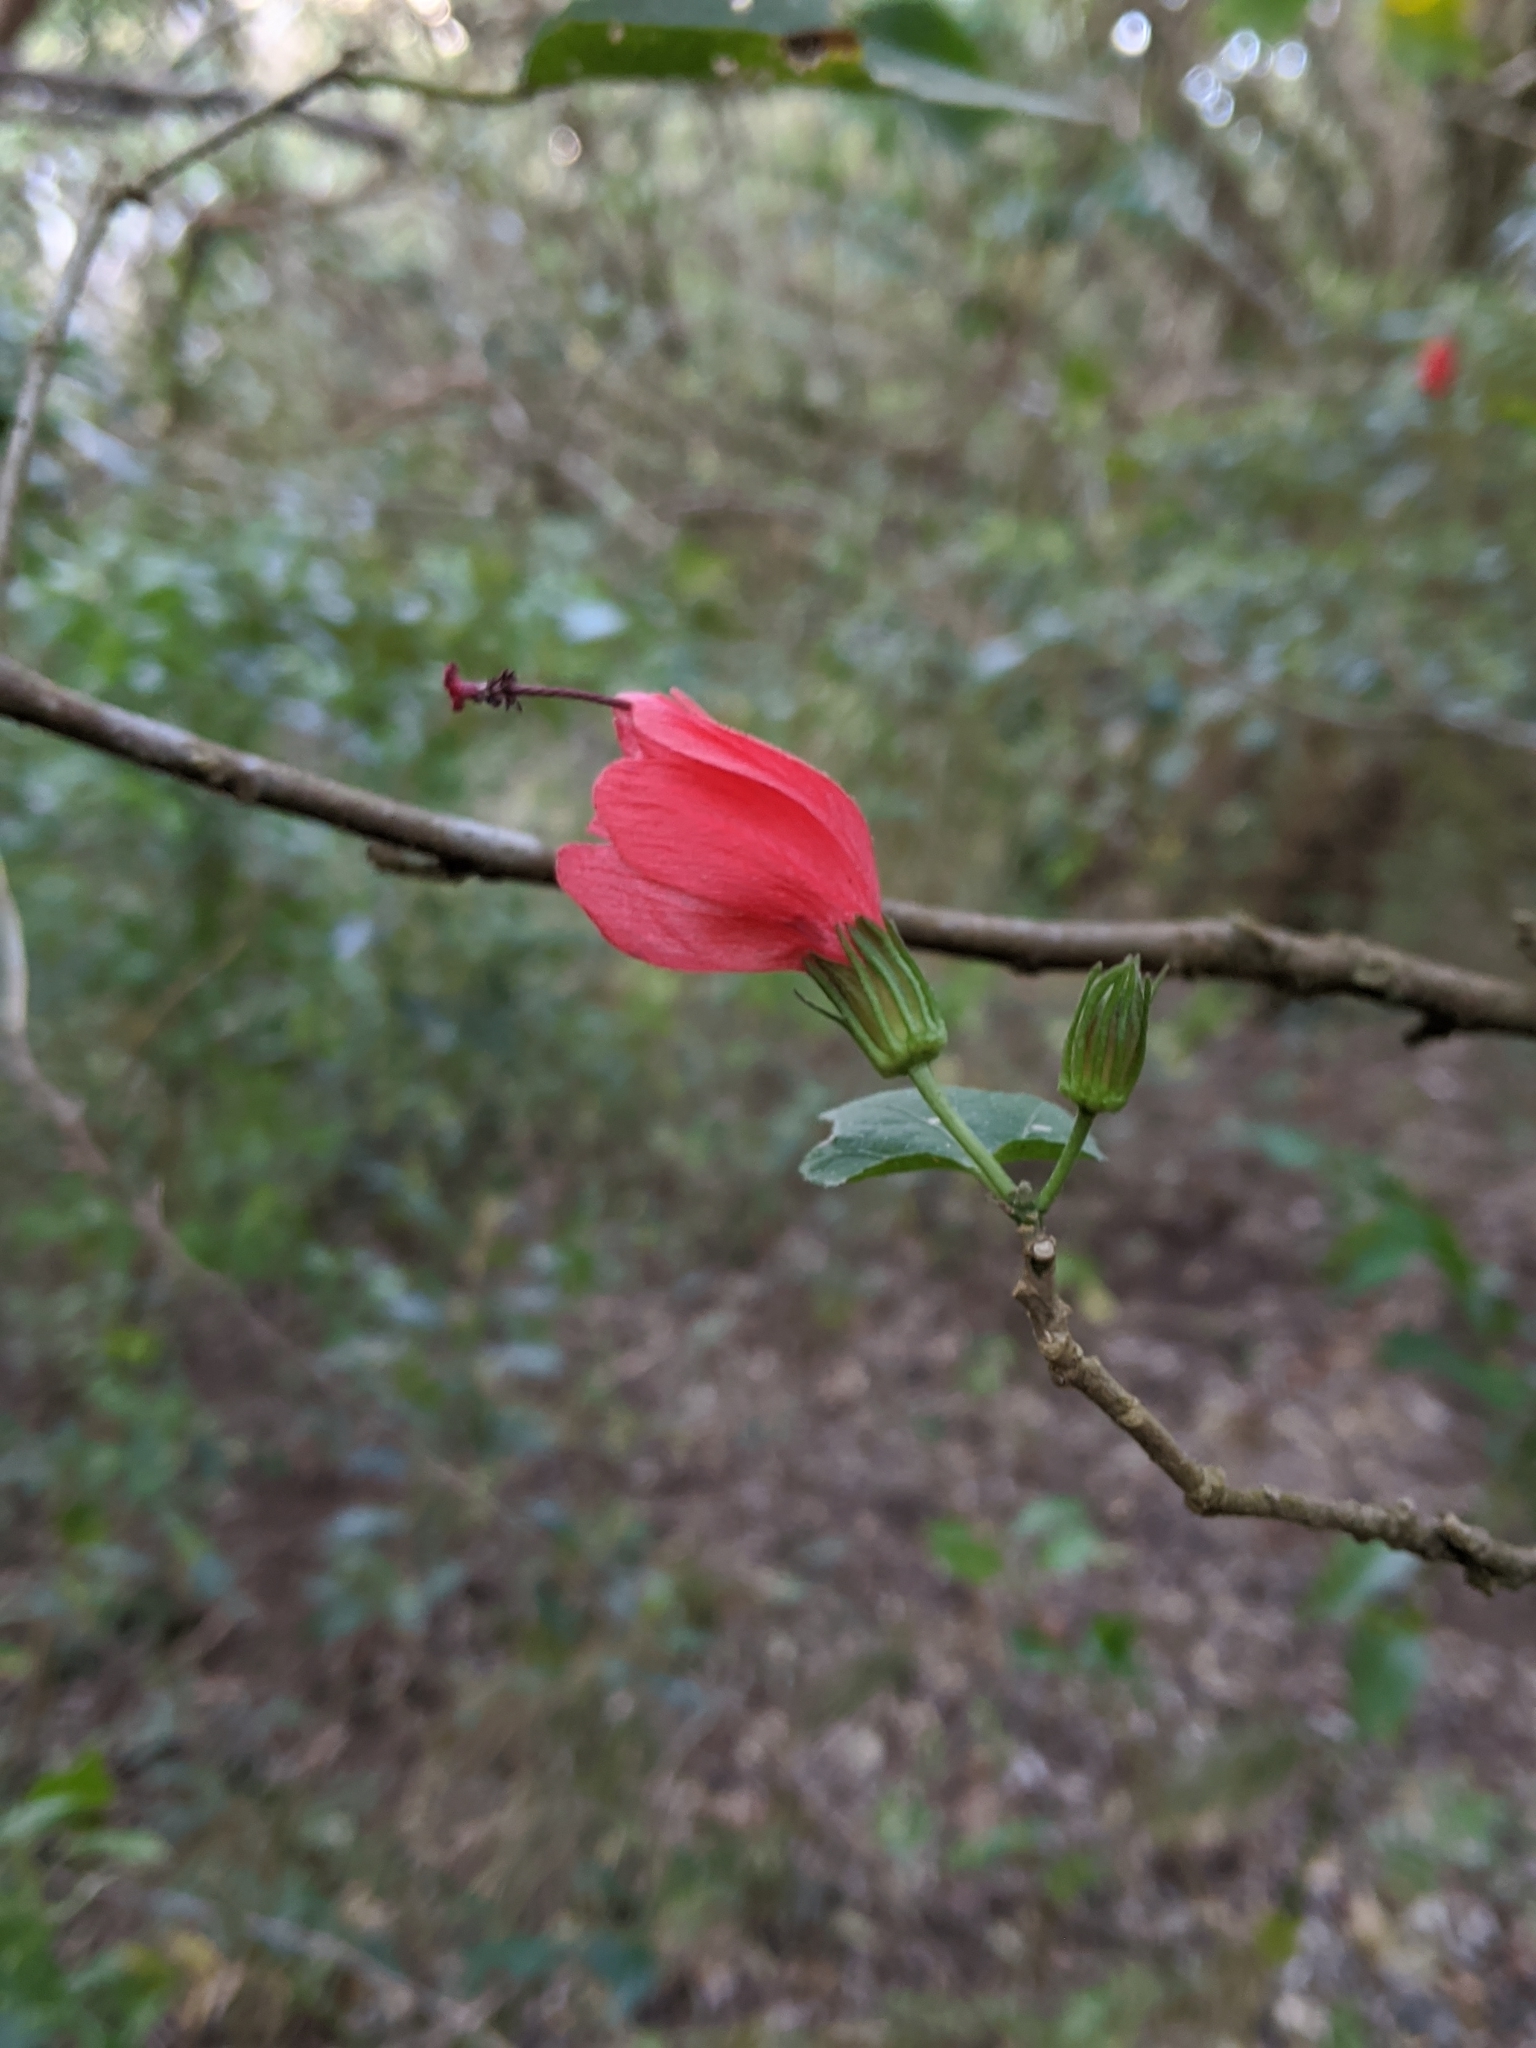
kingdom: Plantae
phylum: Tracheophyta
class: Magnoliopsida
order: Malvales
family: Malvaceae
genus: Malvaviscus
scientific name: Malvaviscus arboreus
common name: Wax mallow
